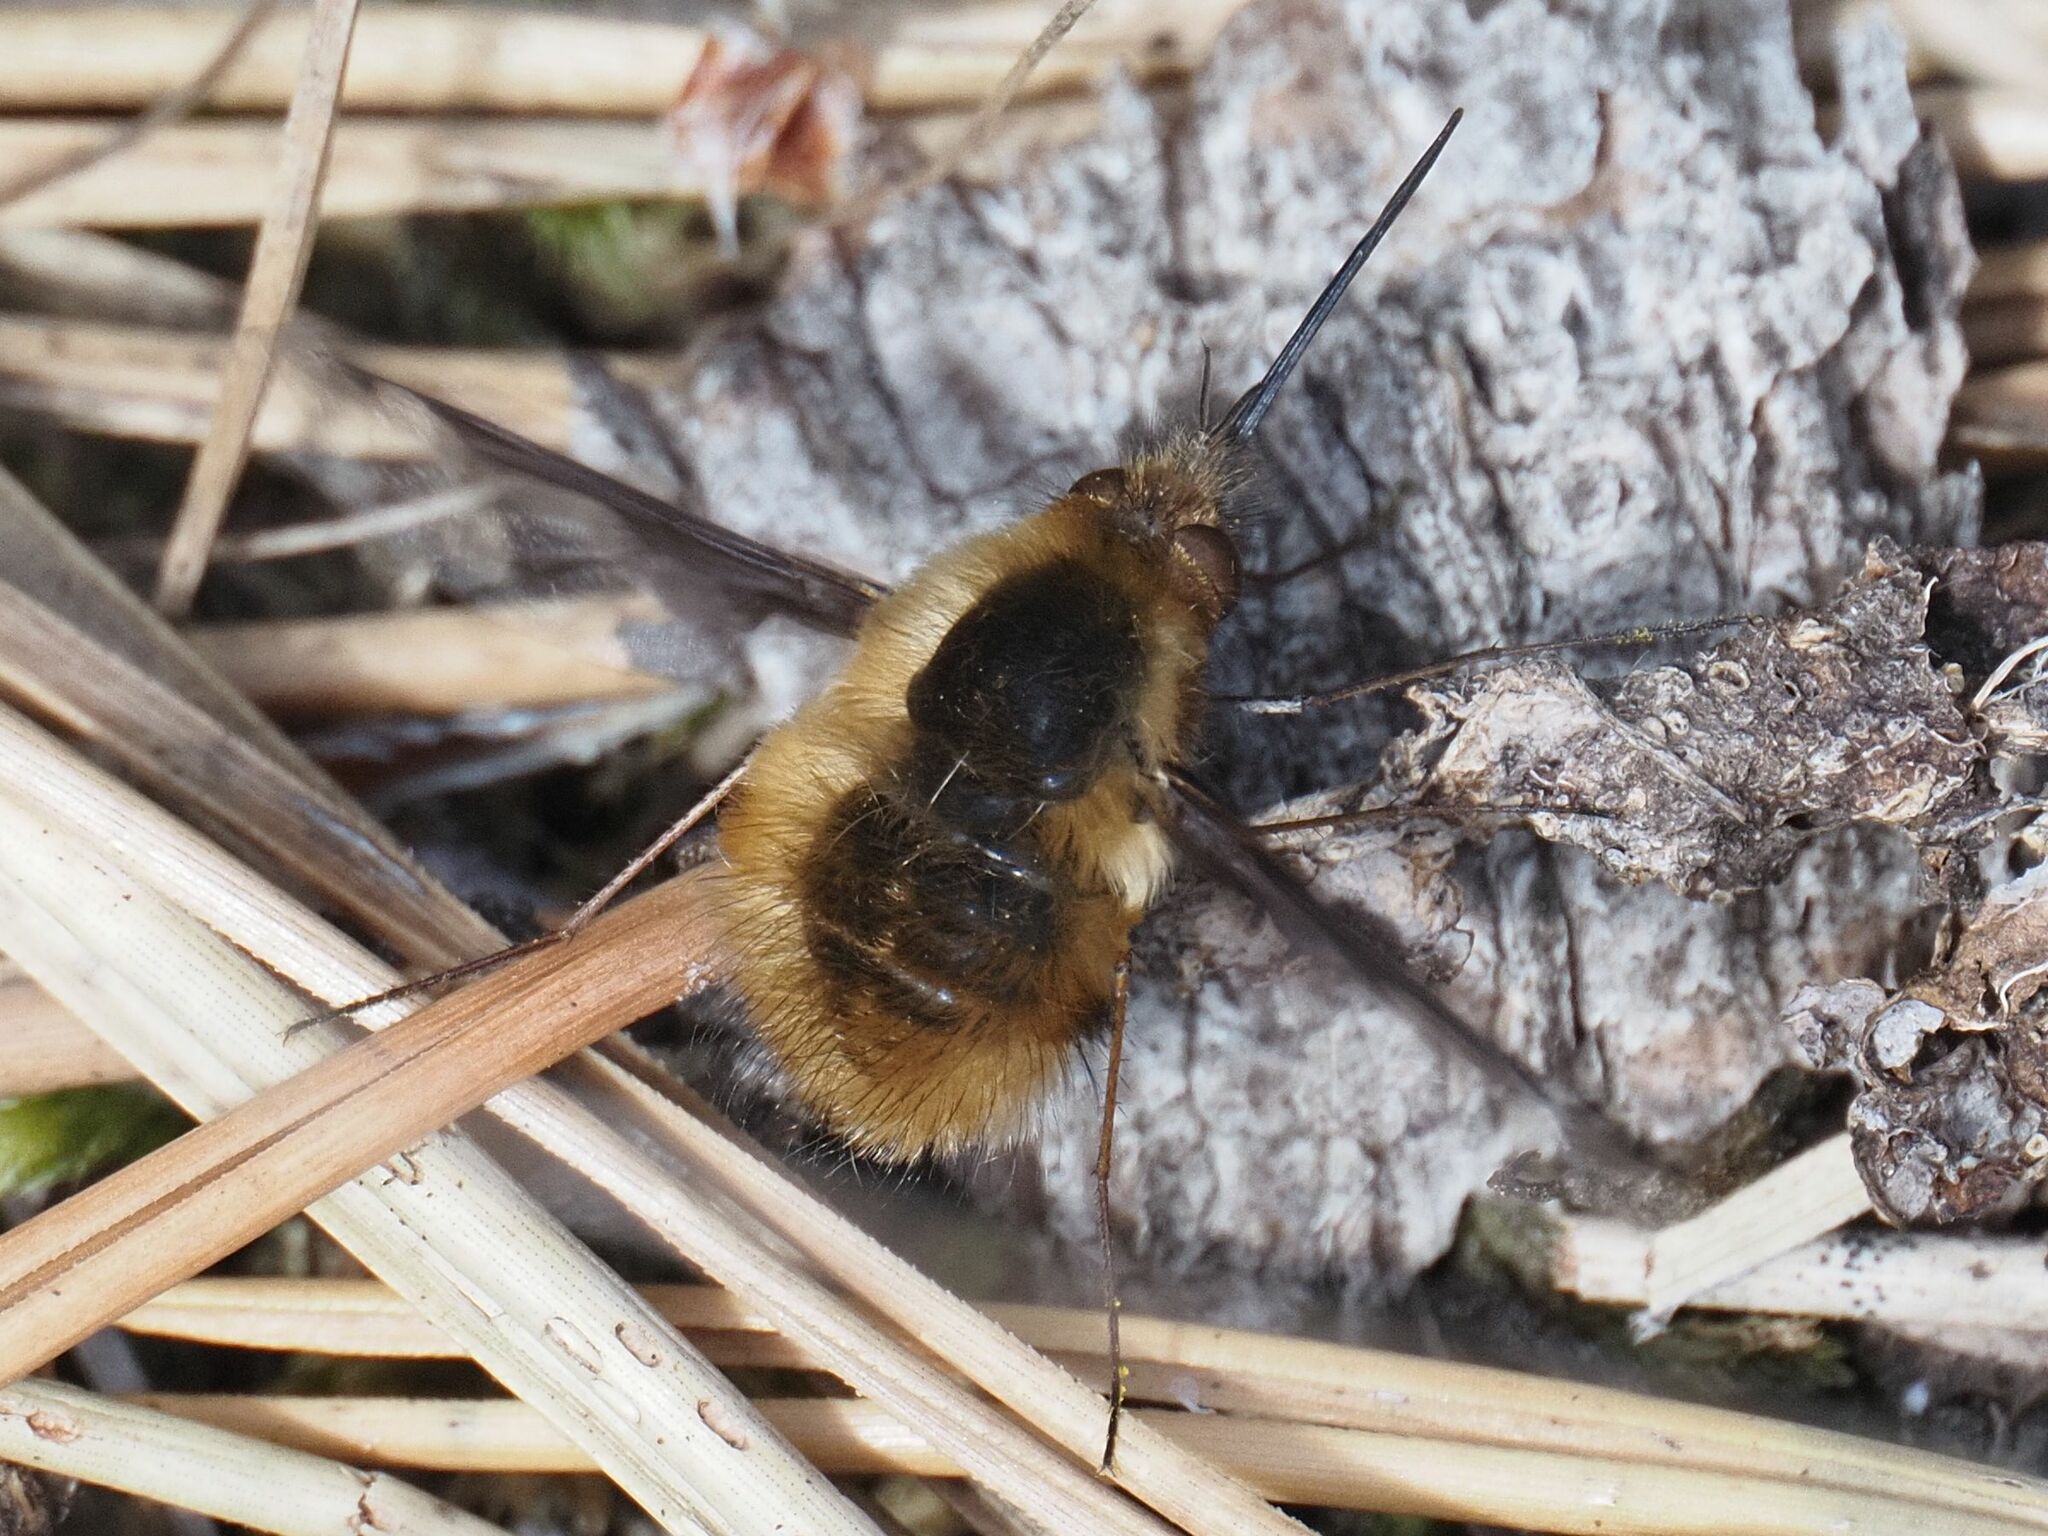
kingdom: Animalia
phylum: Arthropoda
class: Insecta
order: Diptera
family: Bombyliidae
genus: Bombylius
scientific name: Bombylius major
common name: Bee fly
